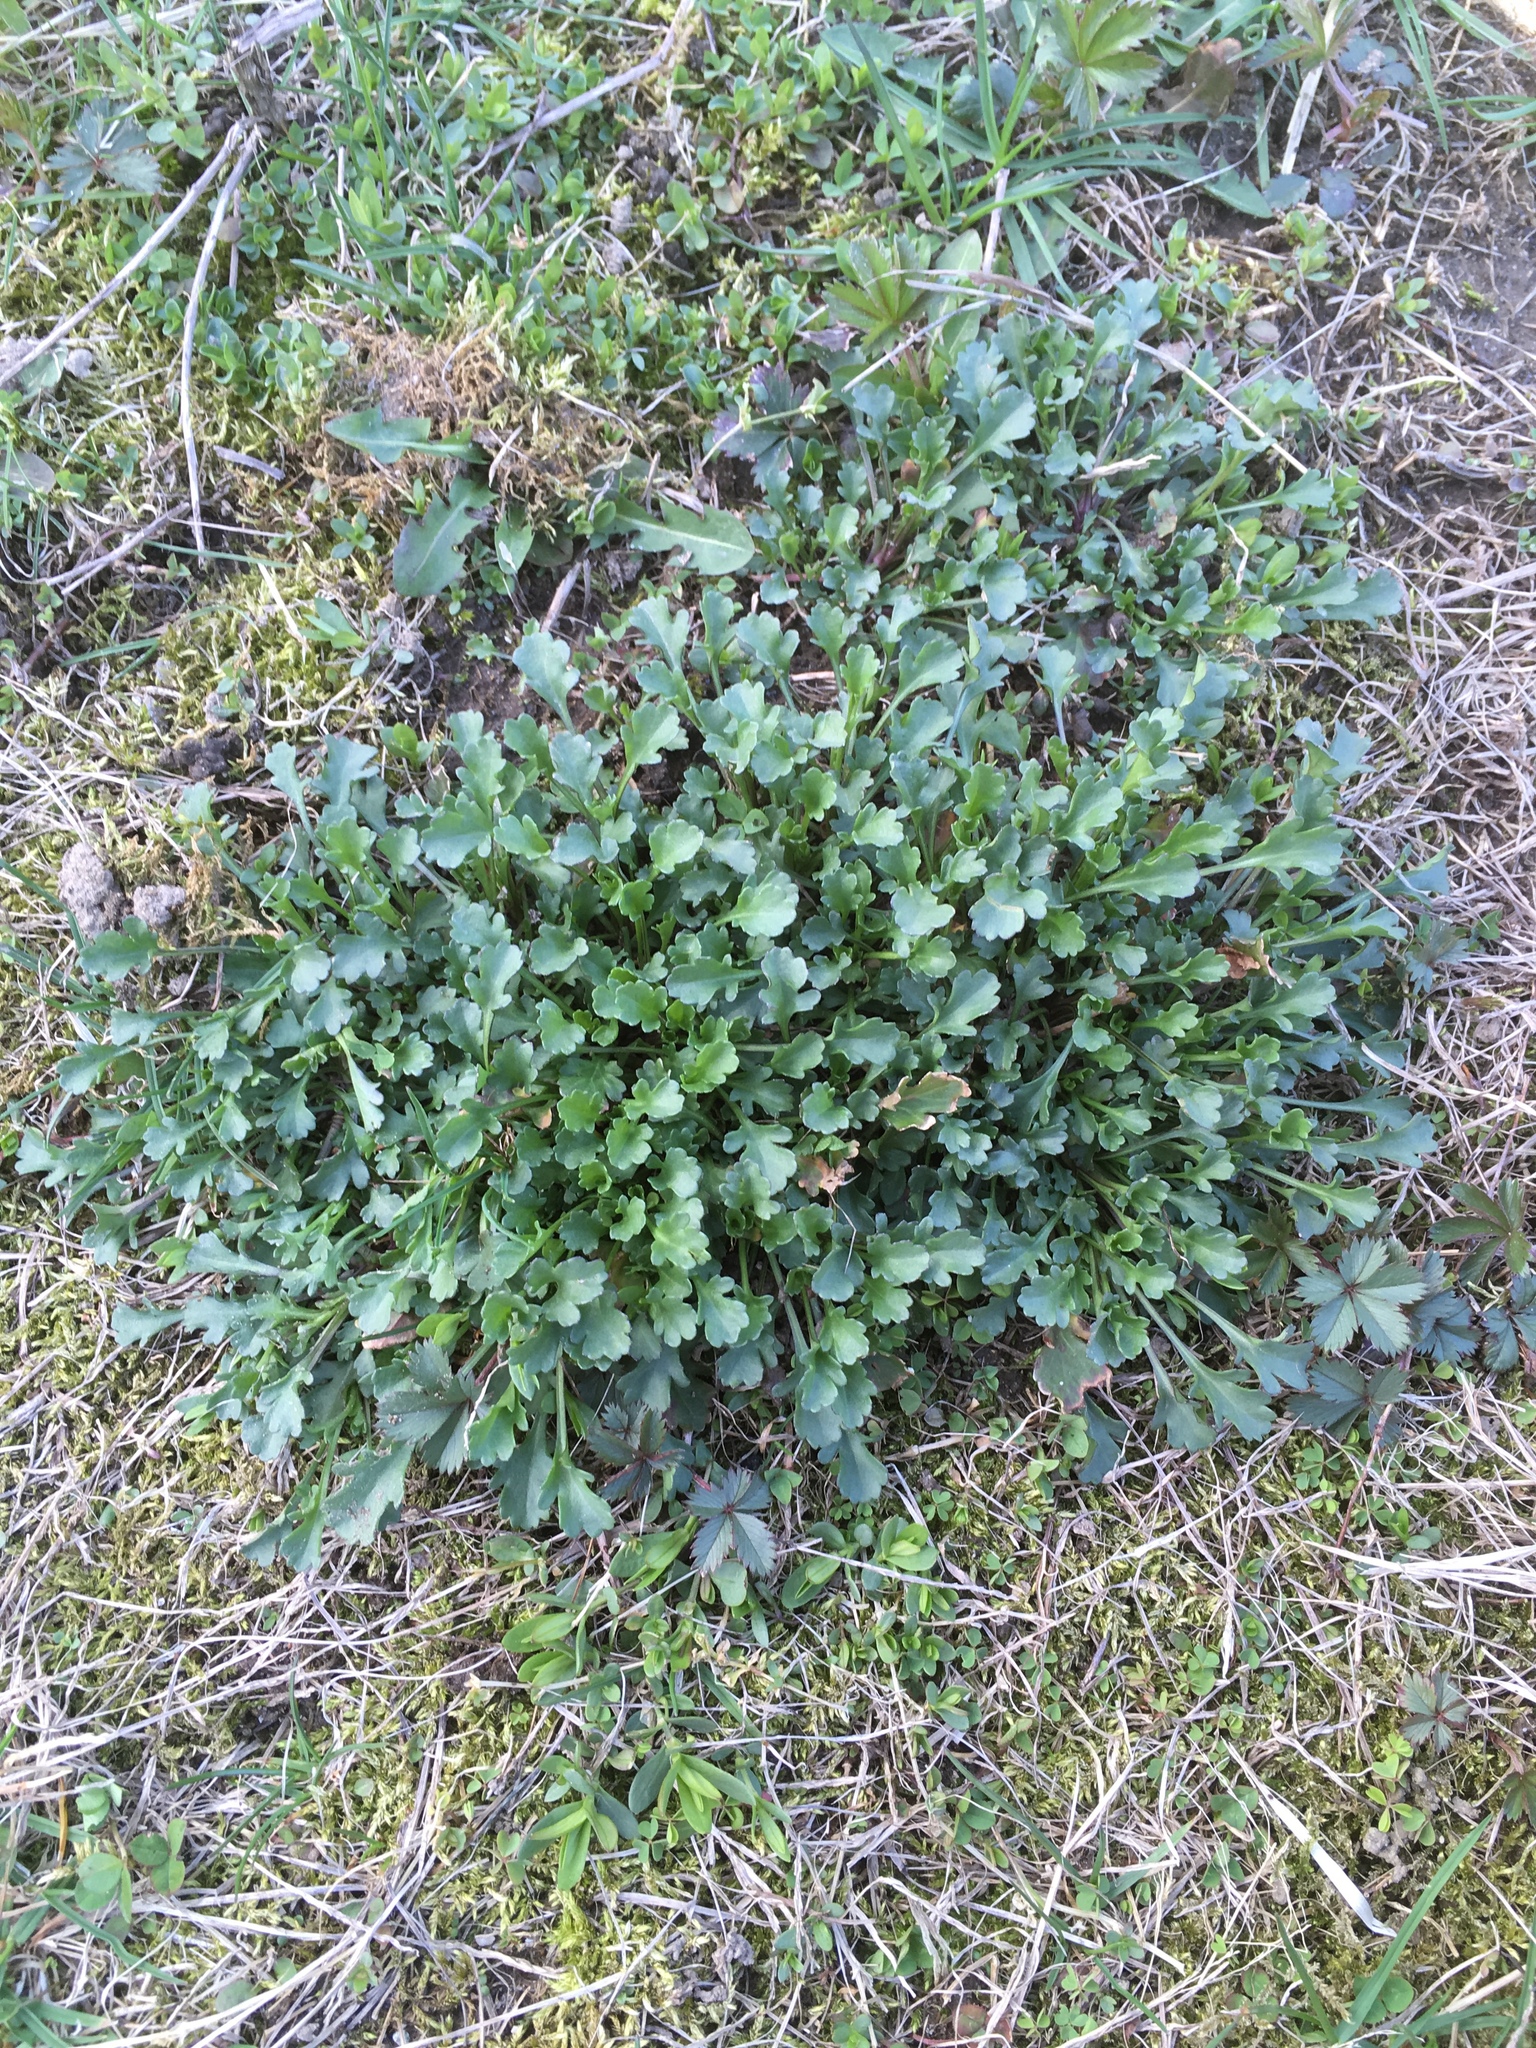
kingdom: Plantae
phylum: Tracheophyta
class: Magnoliopsida
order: Asterales
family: Asteraceae
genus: Leucanthemum
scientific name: Leucanthemum vulgare
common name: Oxeye daisy
